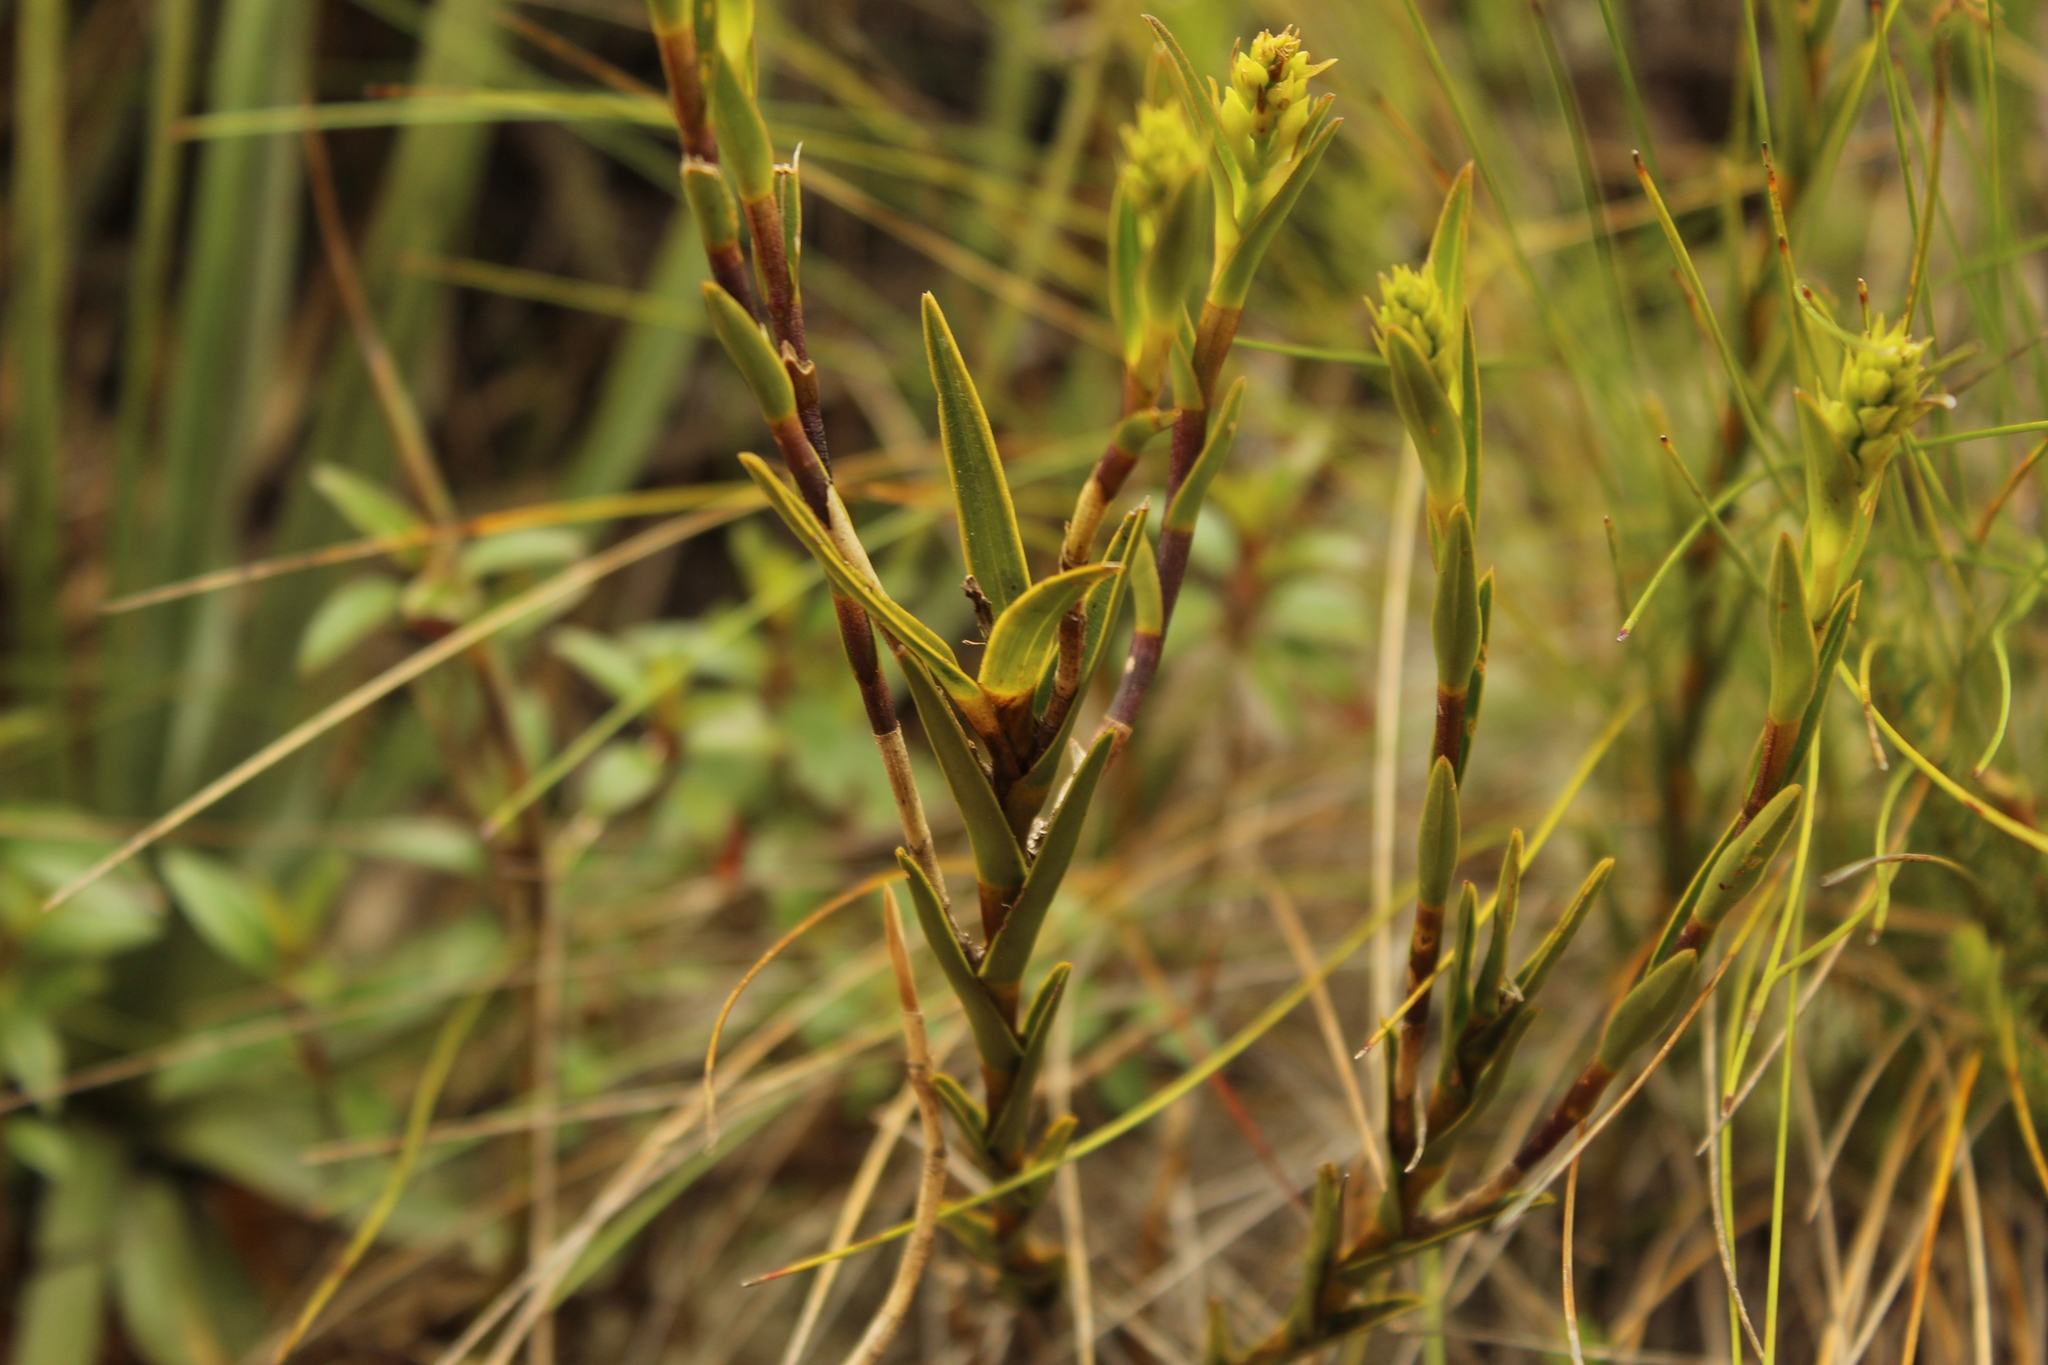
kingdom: Plantae
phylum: Tracheophyta
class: Liliopsida
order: Asparagales
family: Orchidaceae
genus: Epidendrum
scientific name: Epidendrum chioneum
